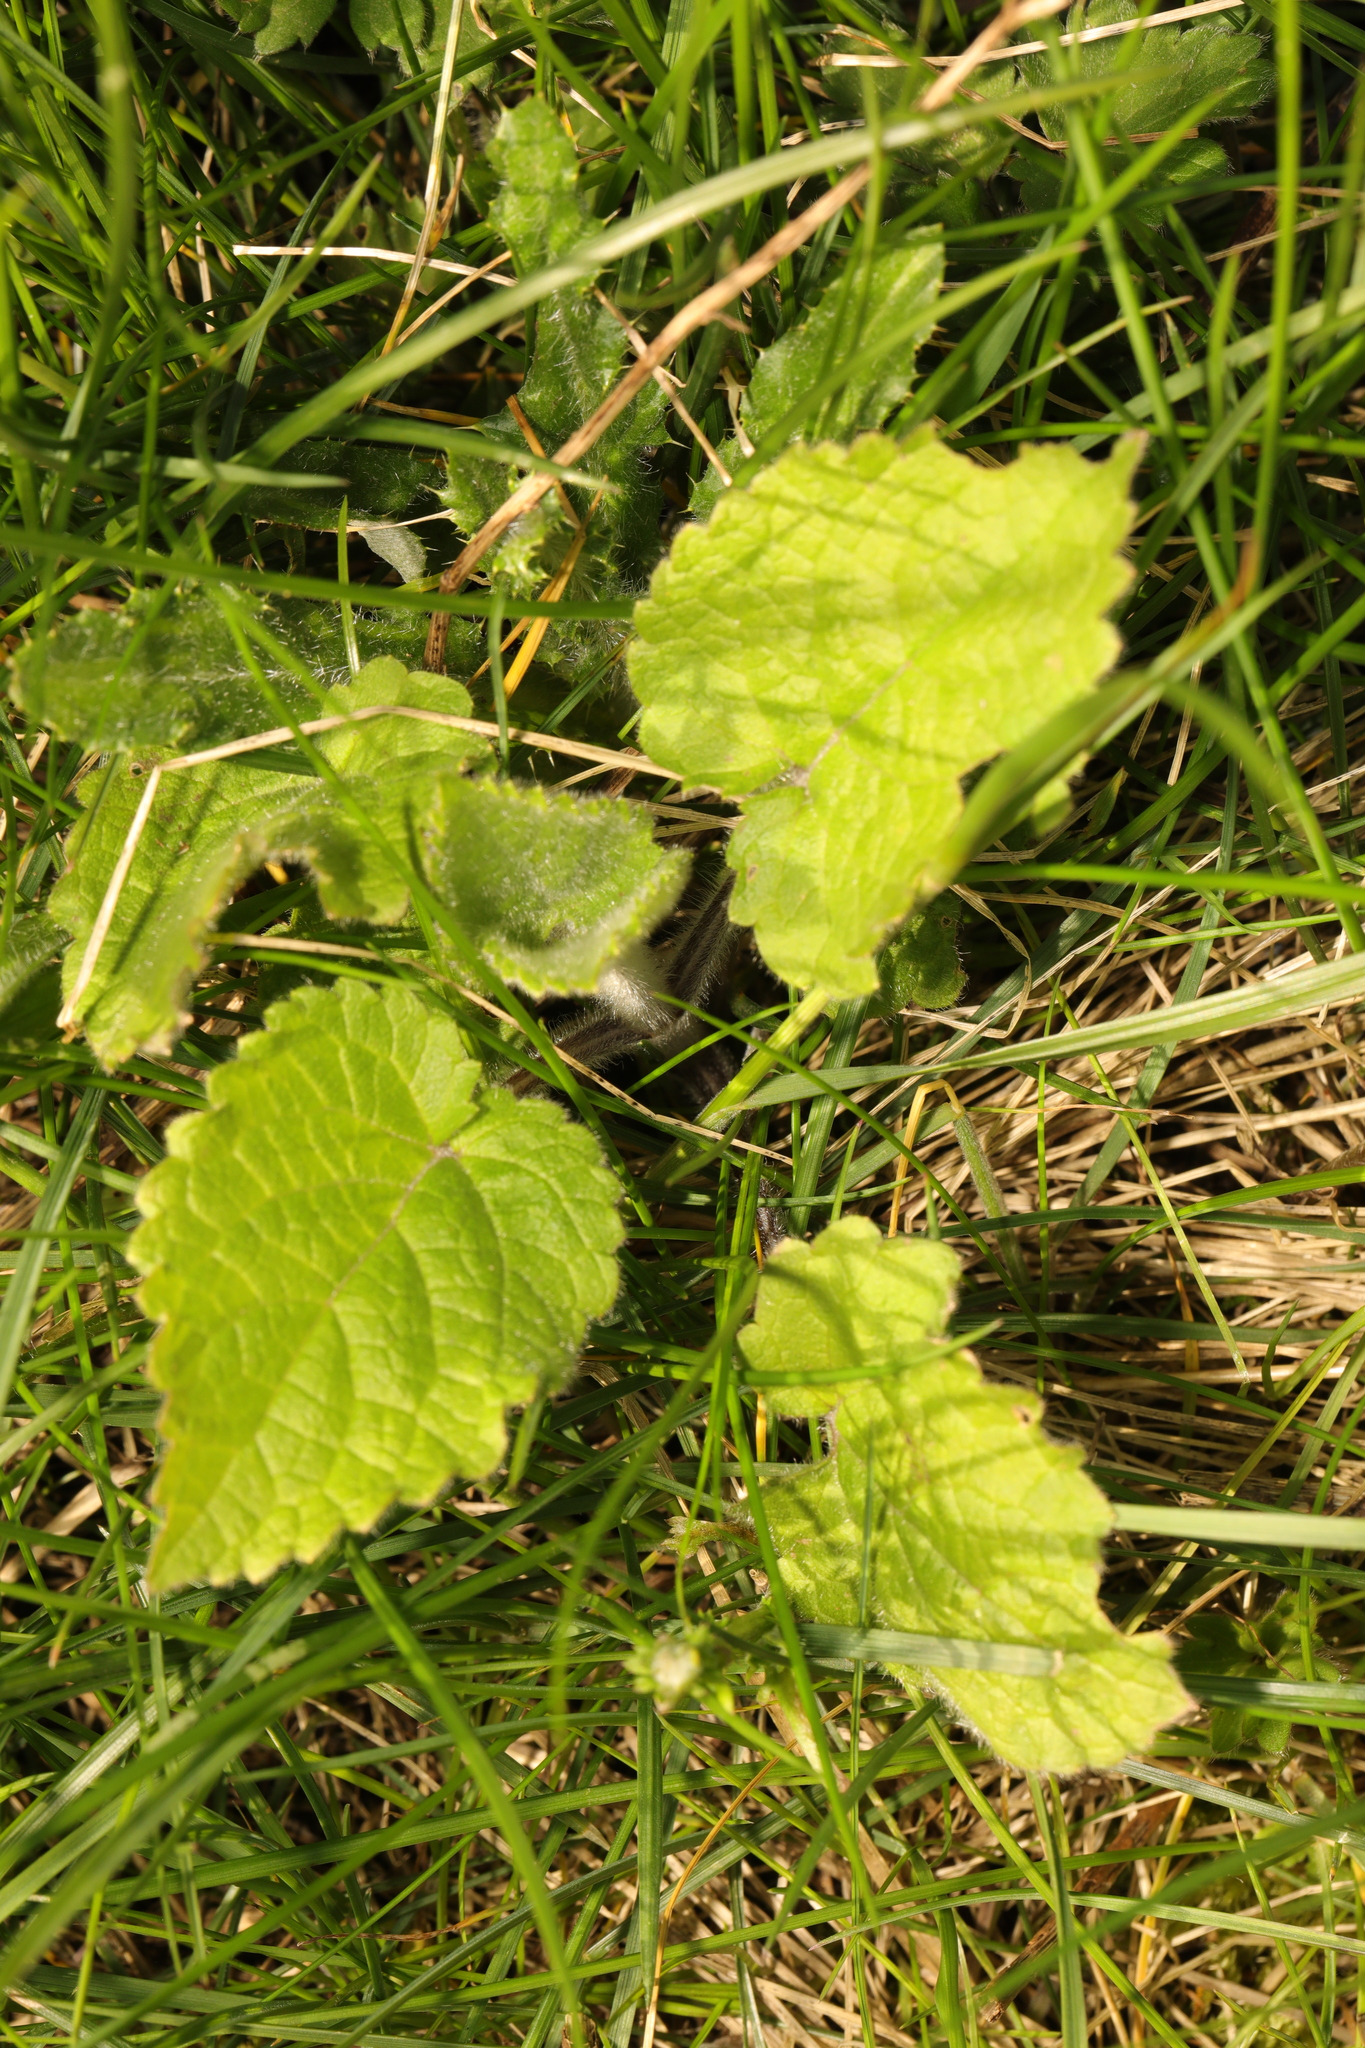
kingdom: Plantae
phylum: Tracheophyta
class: Magnoliopsida
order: Lamiales
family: Lamiaceae
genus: Stachys
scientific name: Stachys sylvatica
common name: Hedge woundwort
